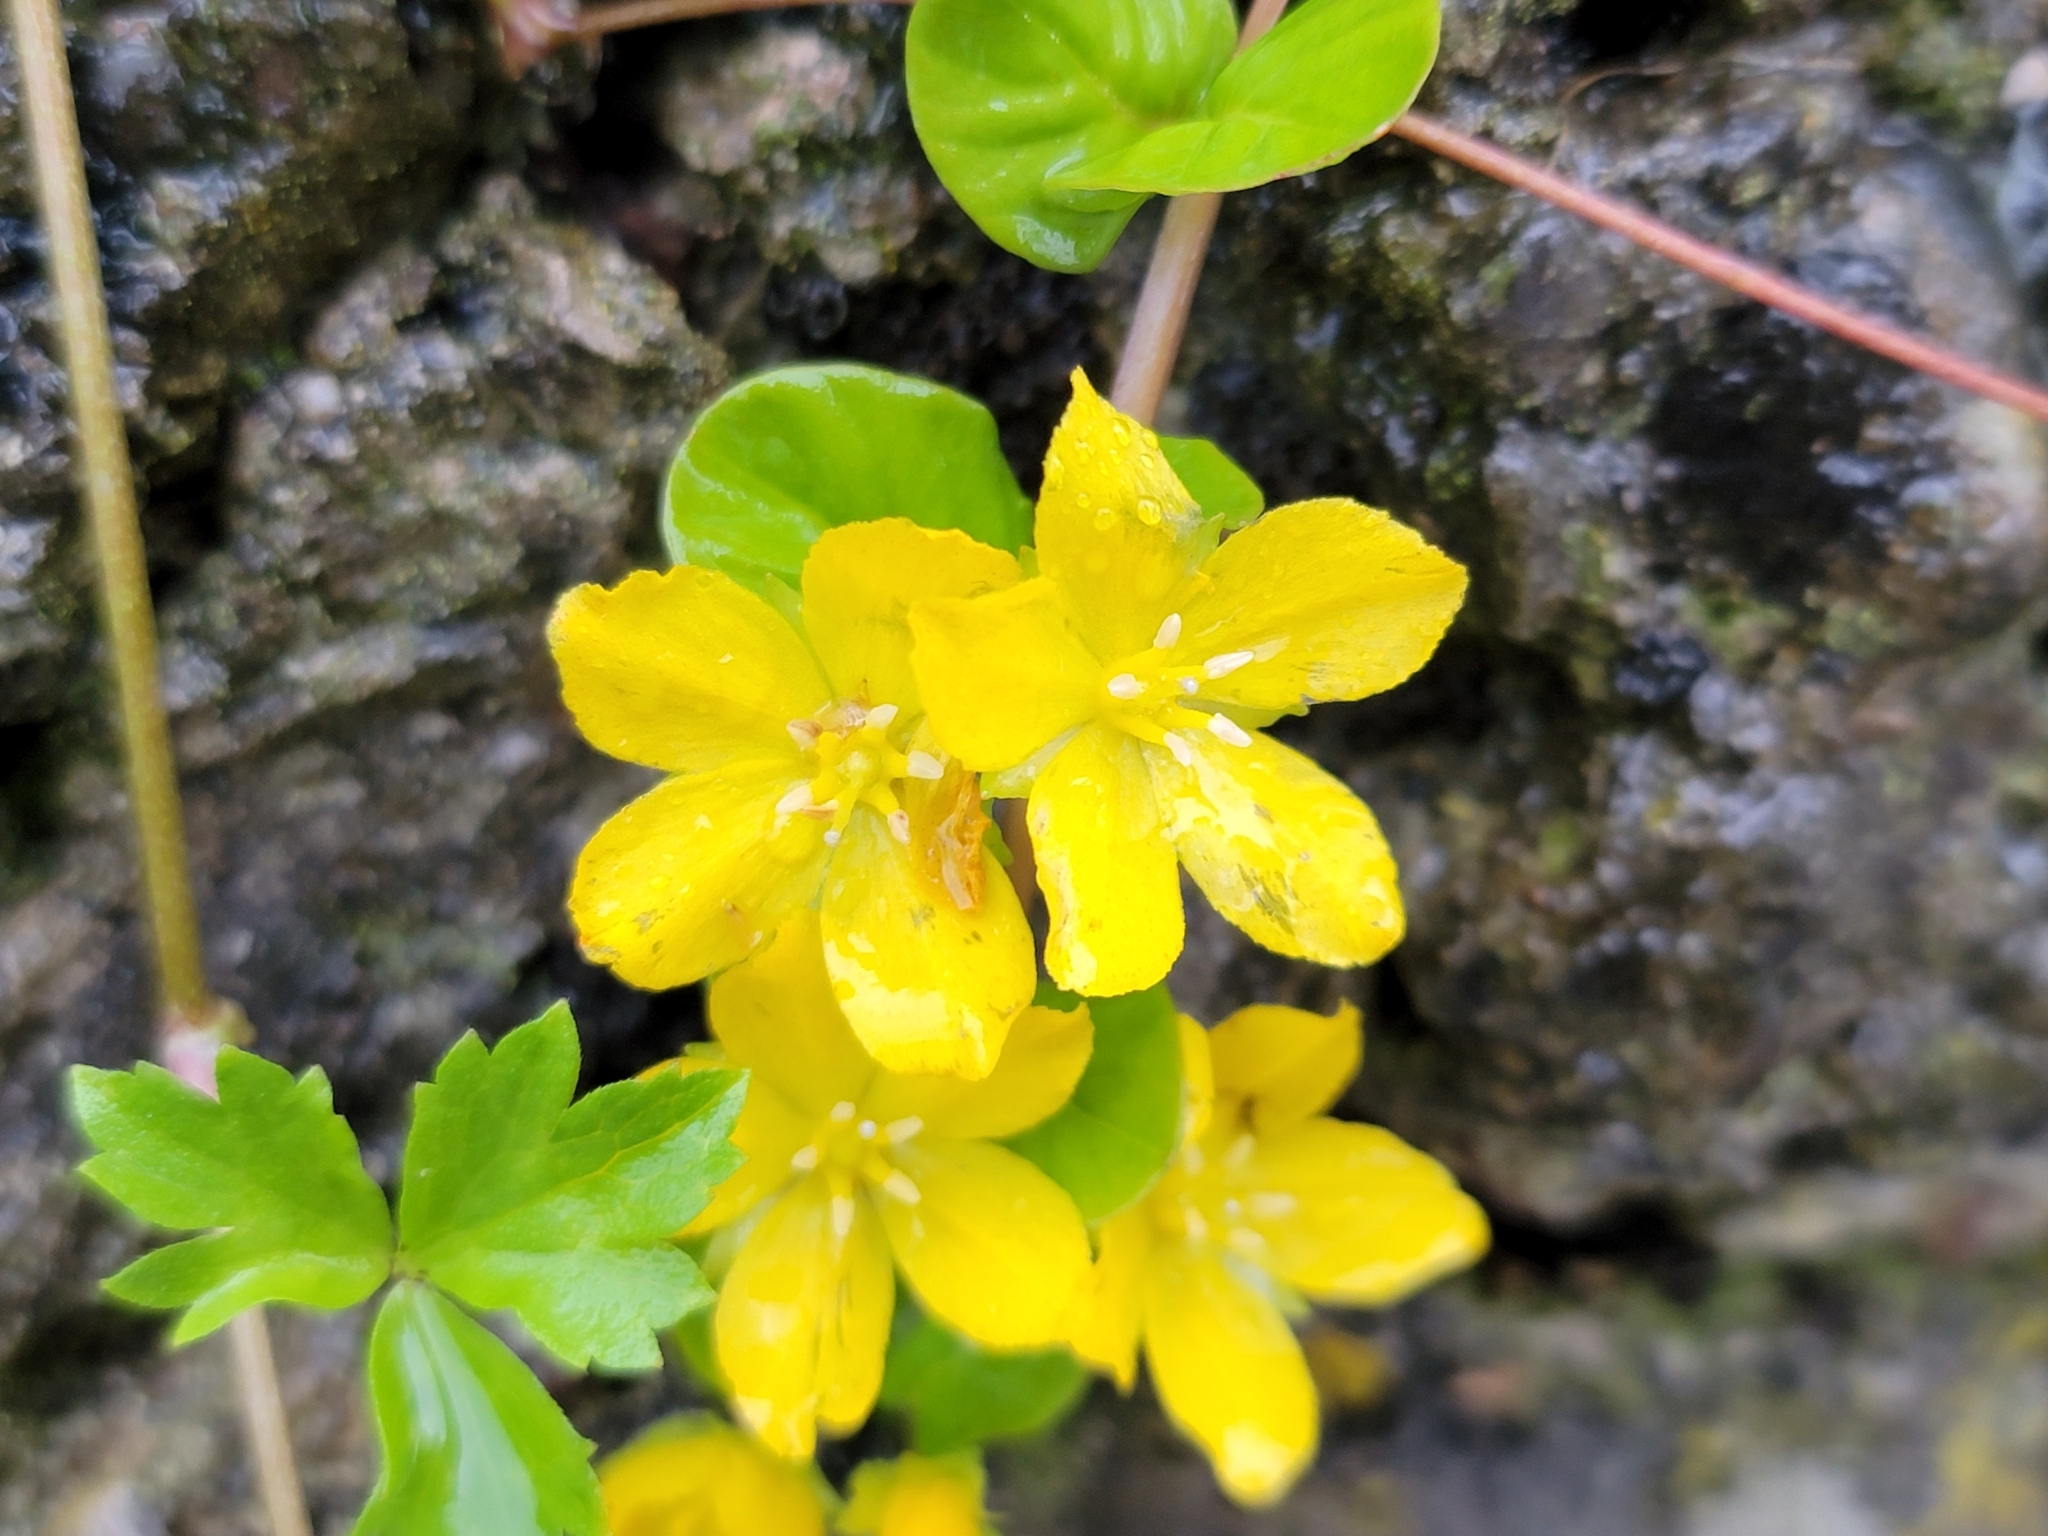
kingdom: Plantae
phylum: Tracheophyta
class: Magnoliopsida
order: Ericales
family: Primulaceae
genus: Lysimachia
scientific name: Lysimachia nummularia
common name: Moneywort
